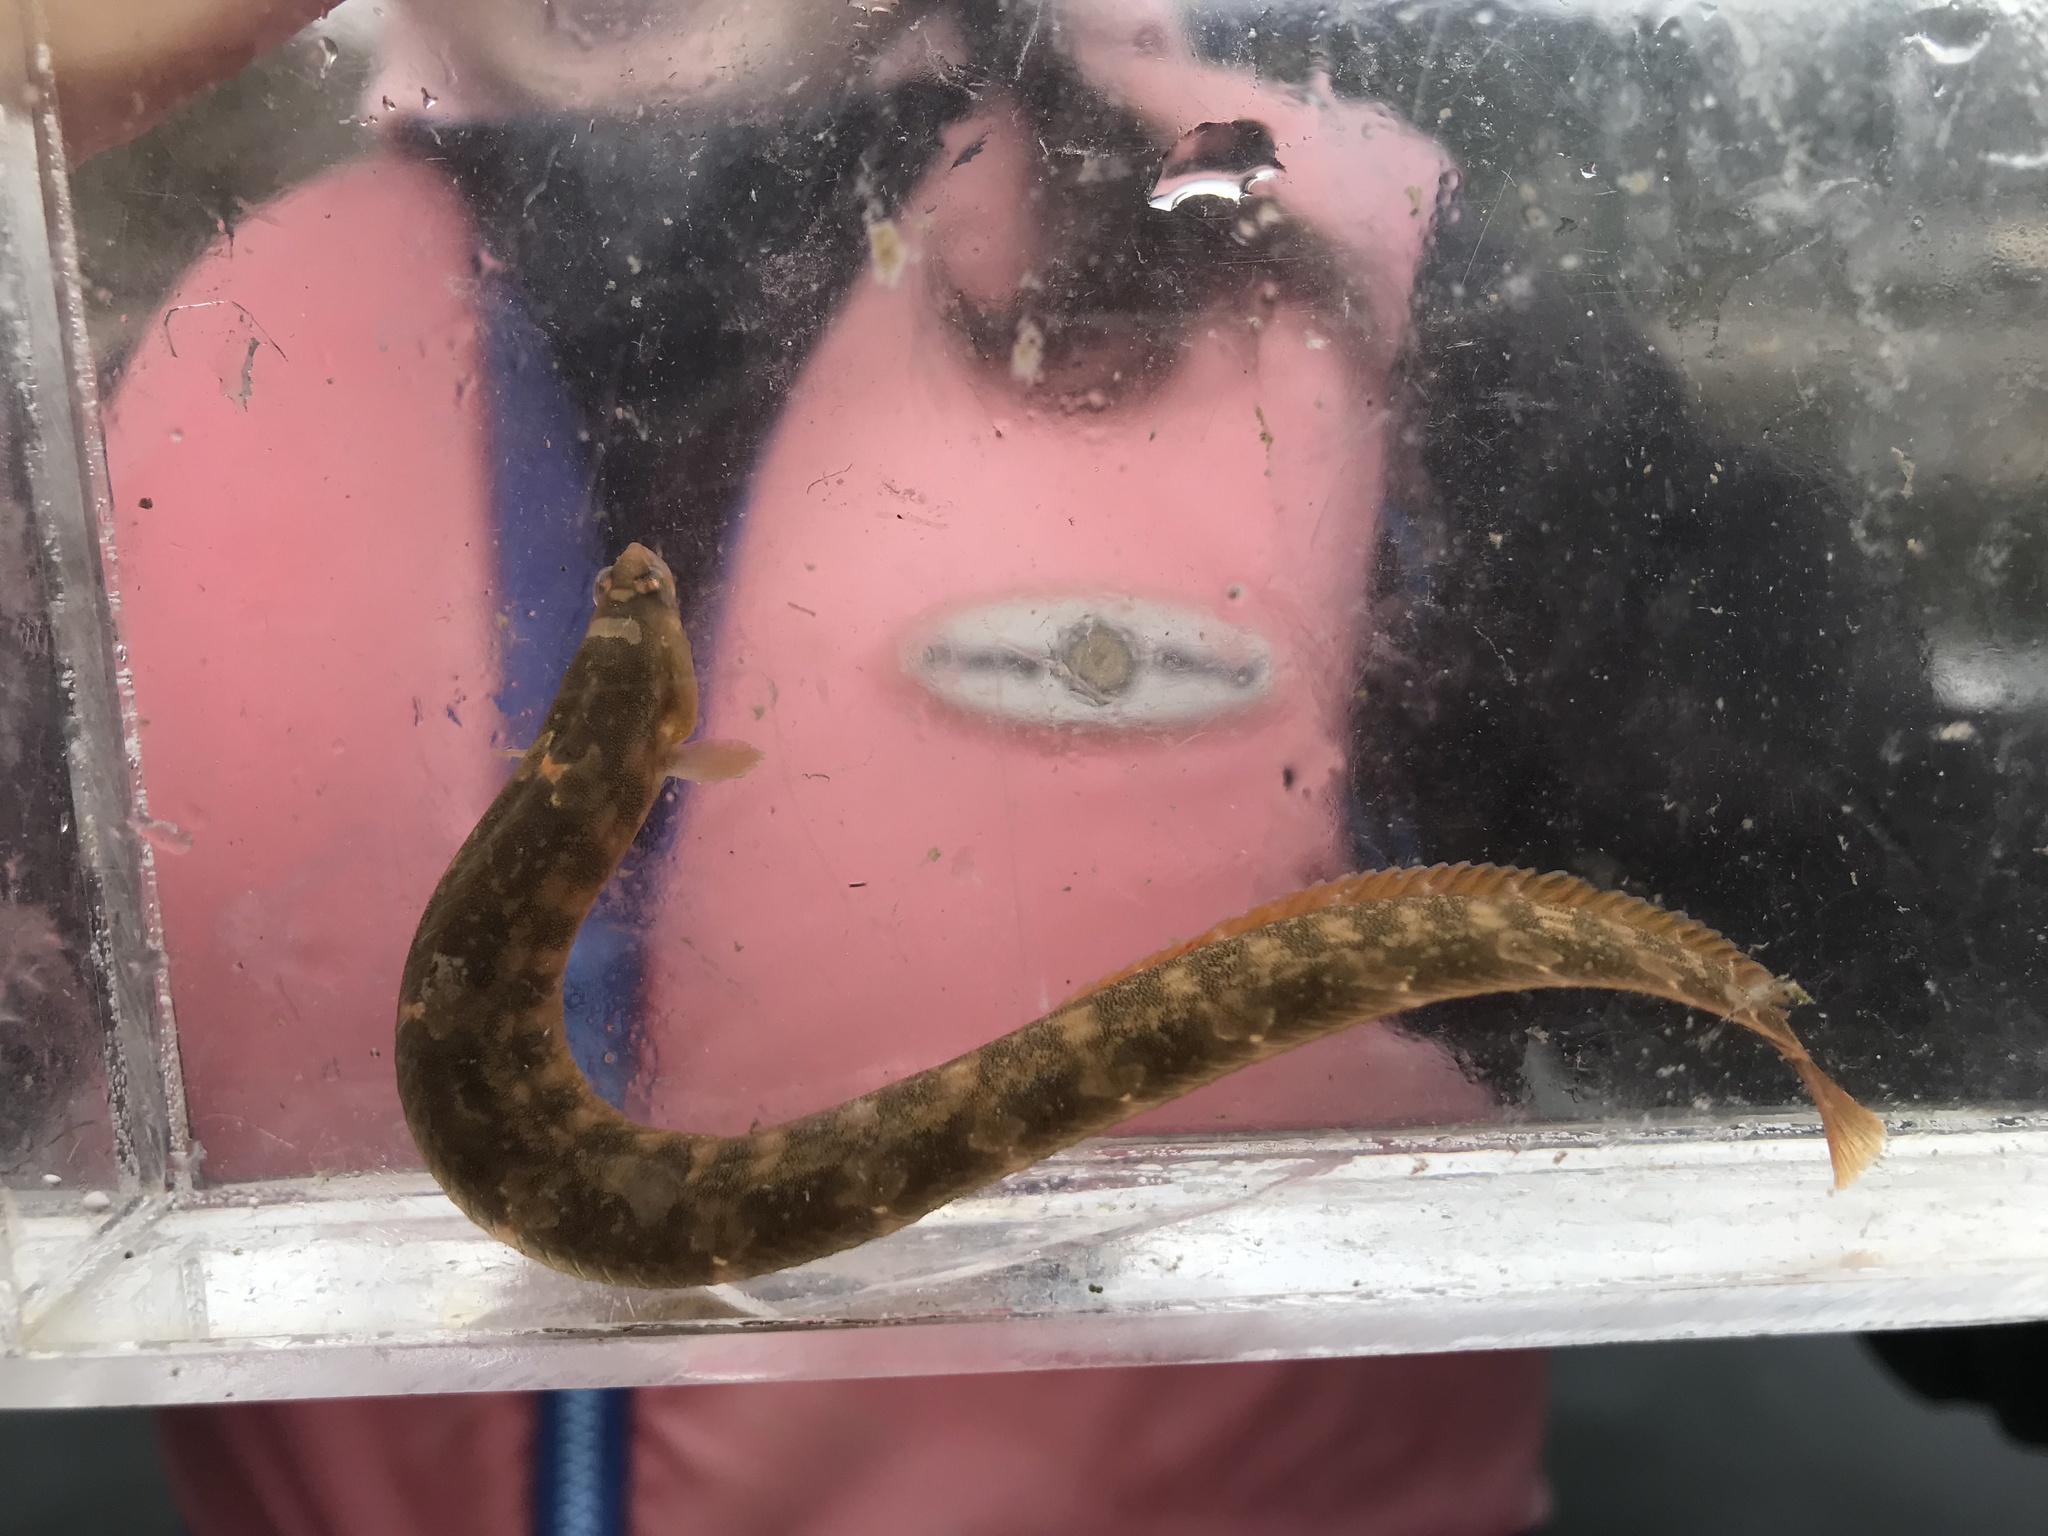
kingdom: Animalia
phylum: Chordata
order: Perciformes
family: Pholidae
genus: Pholis
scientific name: Pholis laeta
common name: Crescent gunnel
